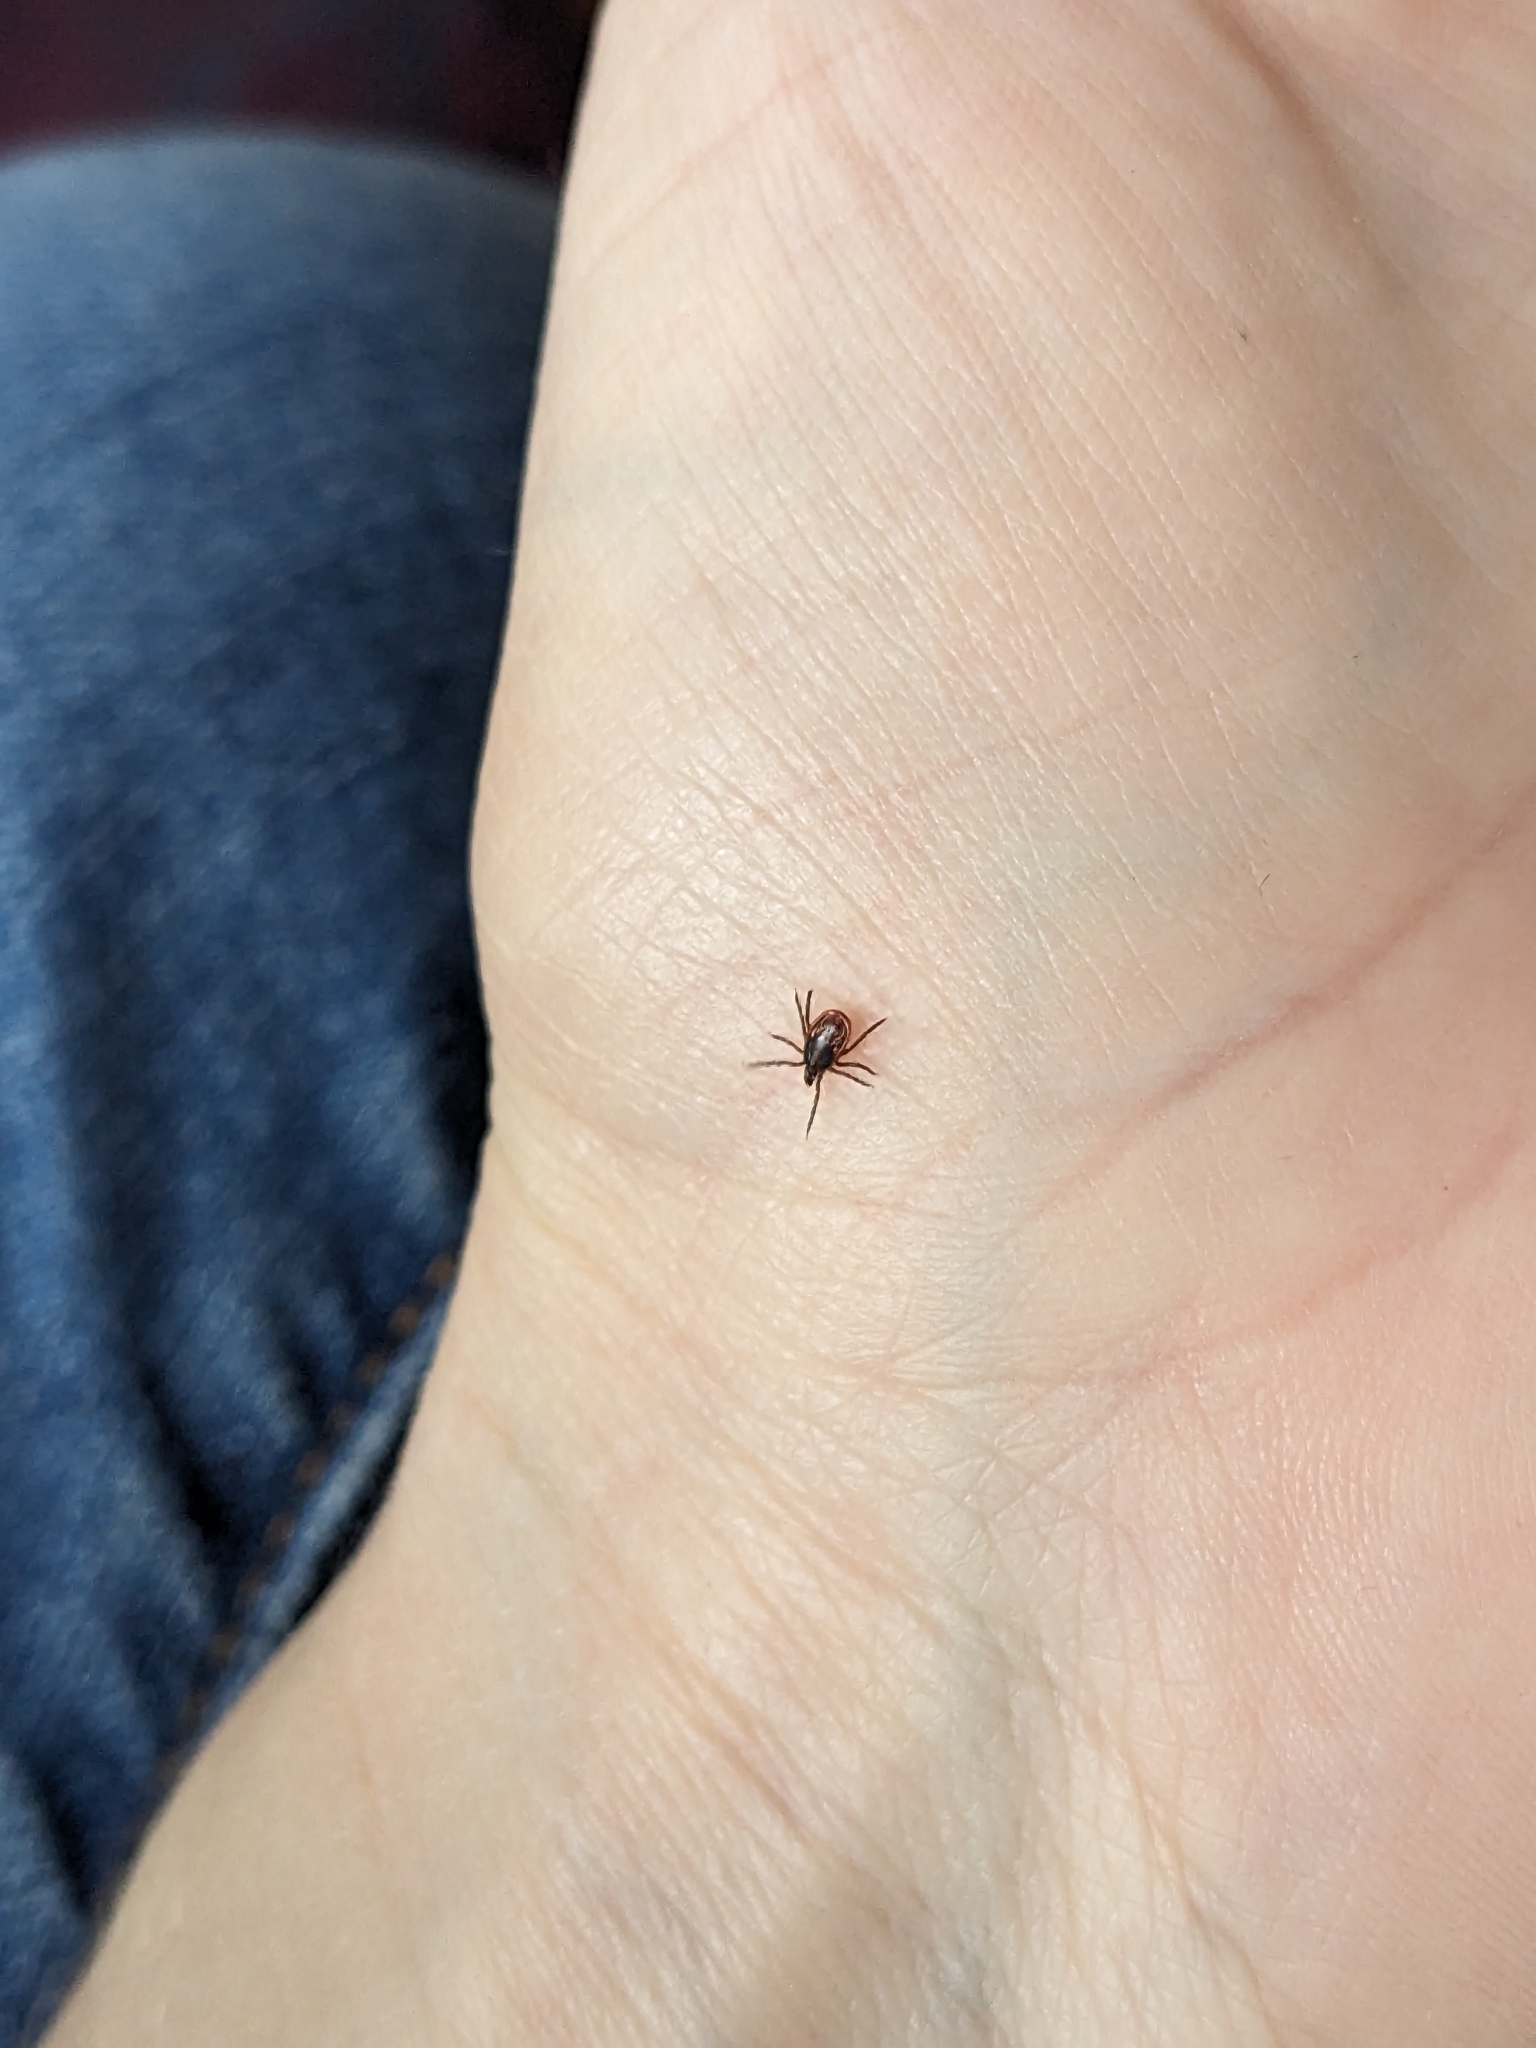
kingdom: Animalia
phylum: Arthropoda
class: Arachnida
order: Ixodida
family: Ixodidae
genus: Ixodes
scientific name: Ixodes scapularis
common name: Black legged tick
